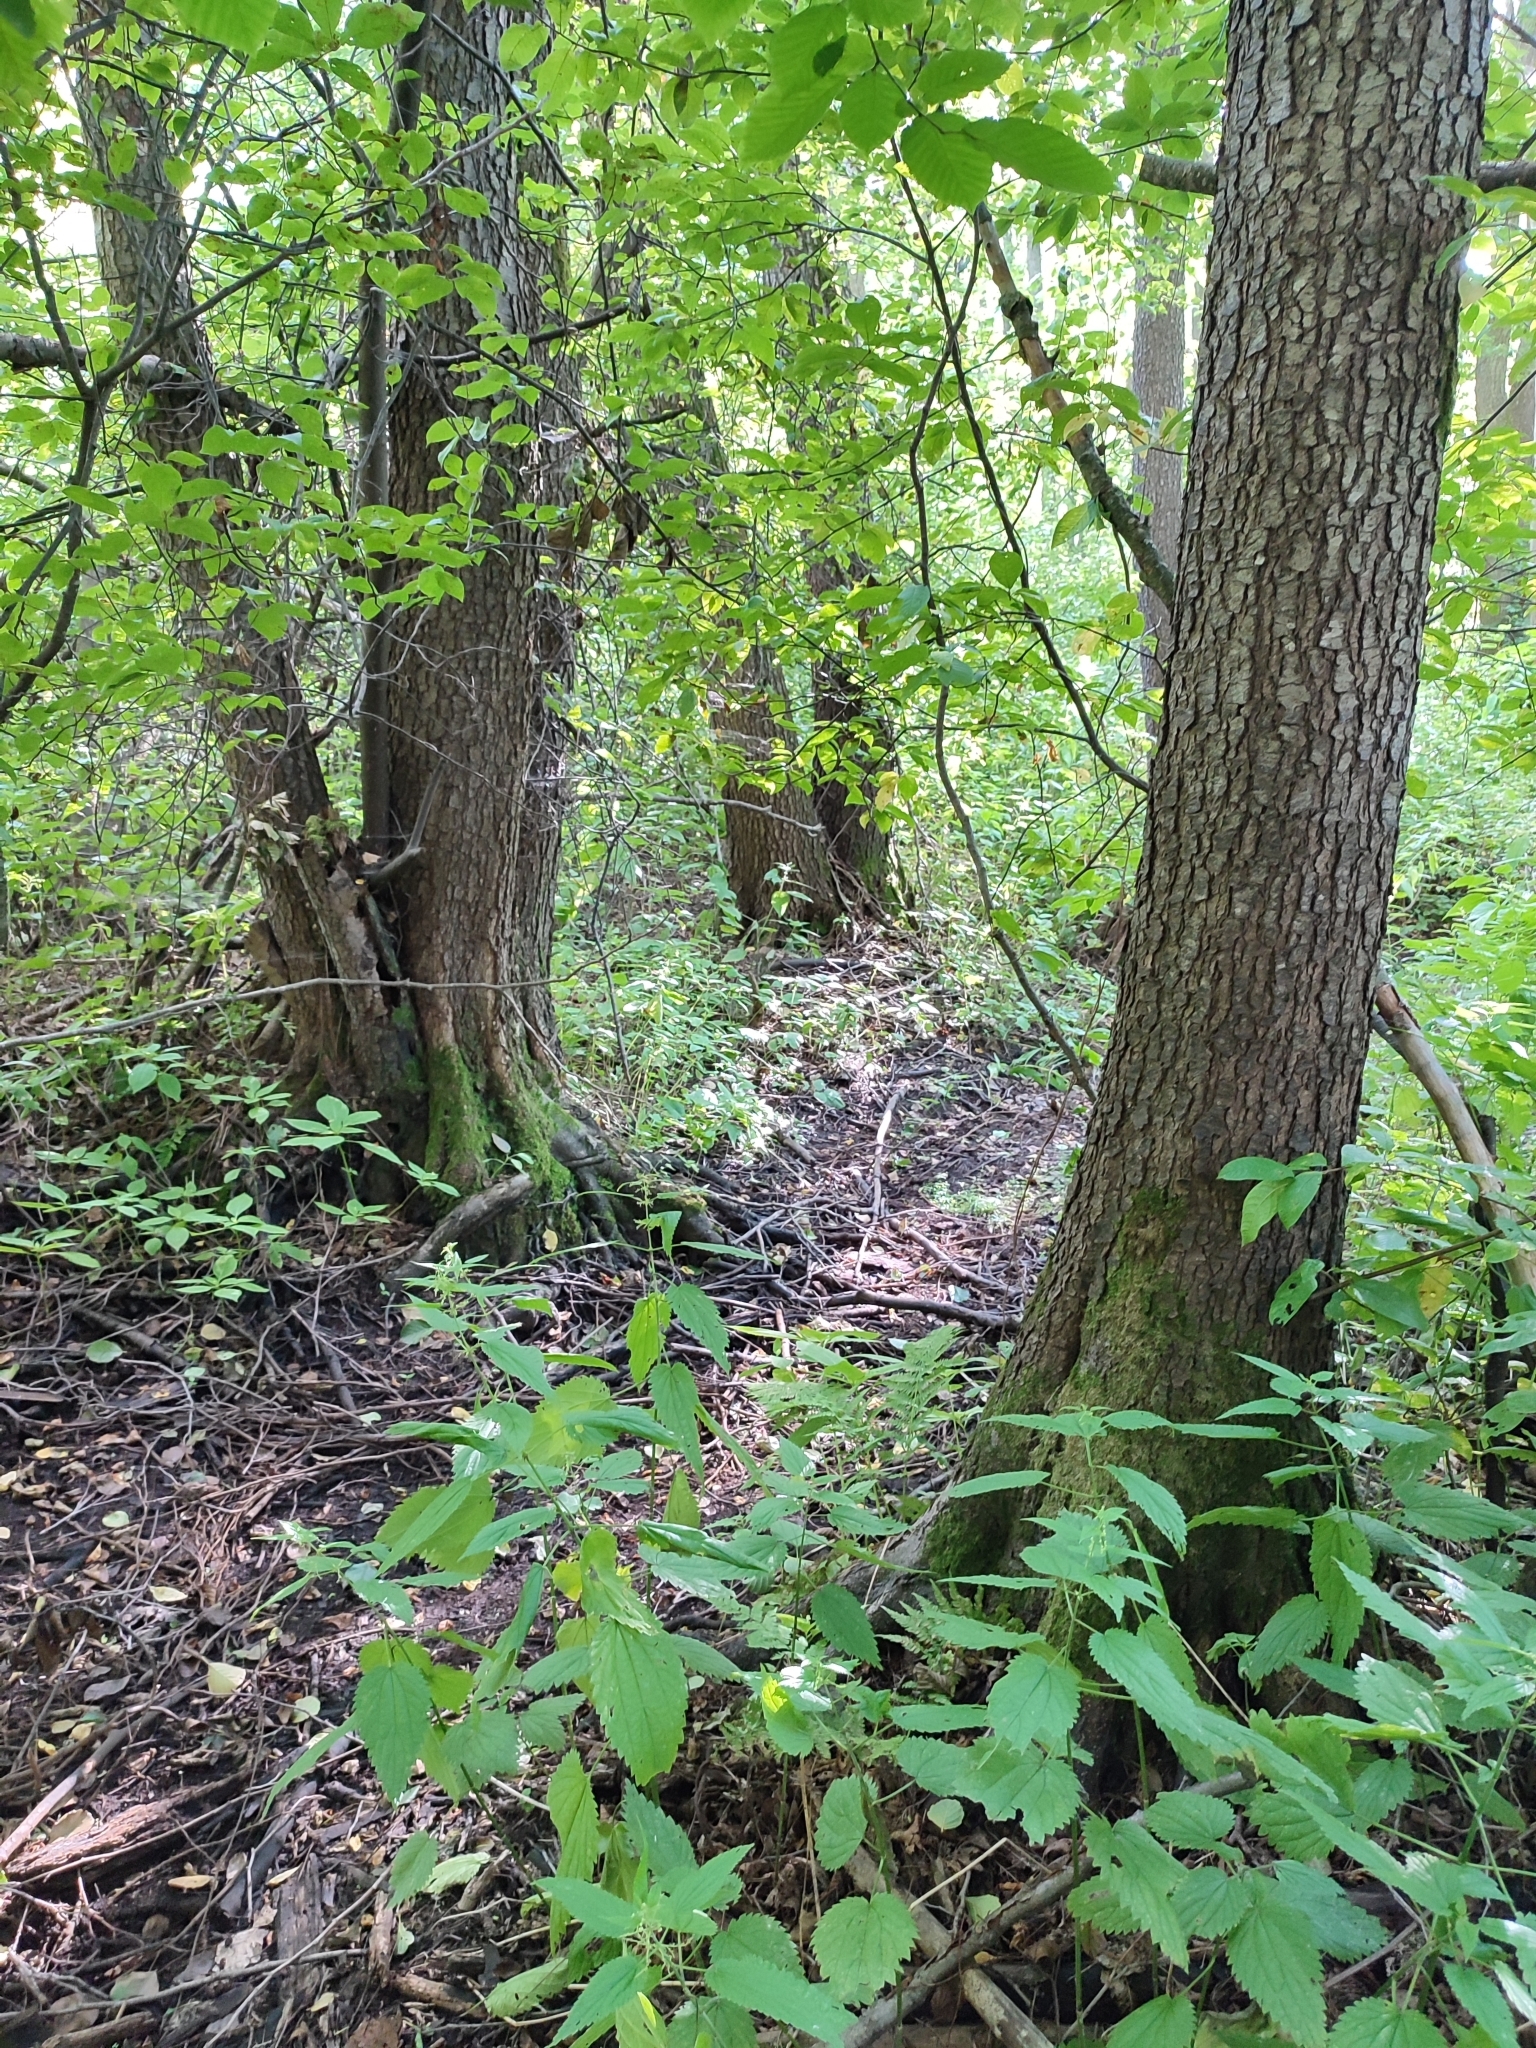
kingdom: Plantae
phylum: Tracheophyta
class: Magnoliopsida
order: Fagales
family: Betulaceae
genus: Alnus
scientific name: Alnus glutinosa
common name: Black alder
